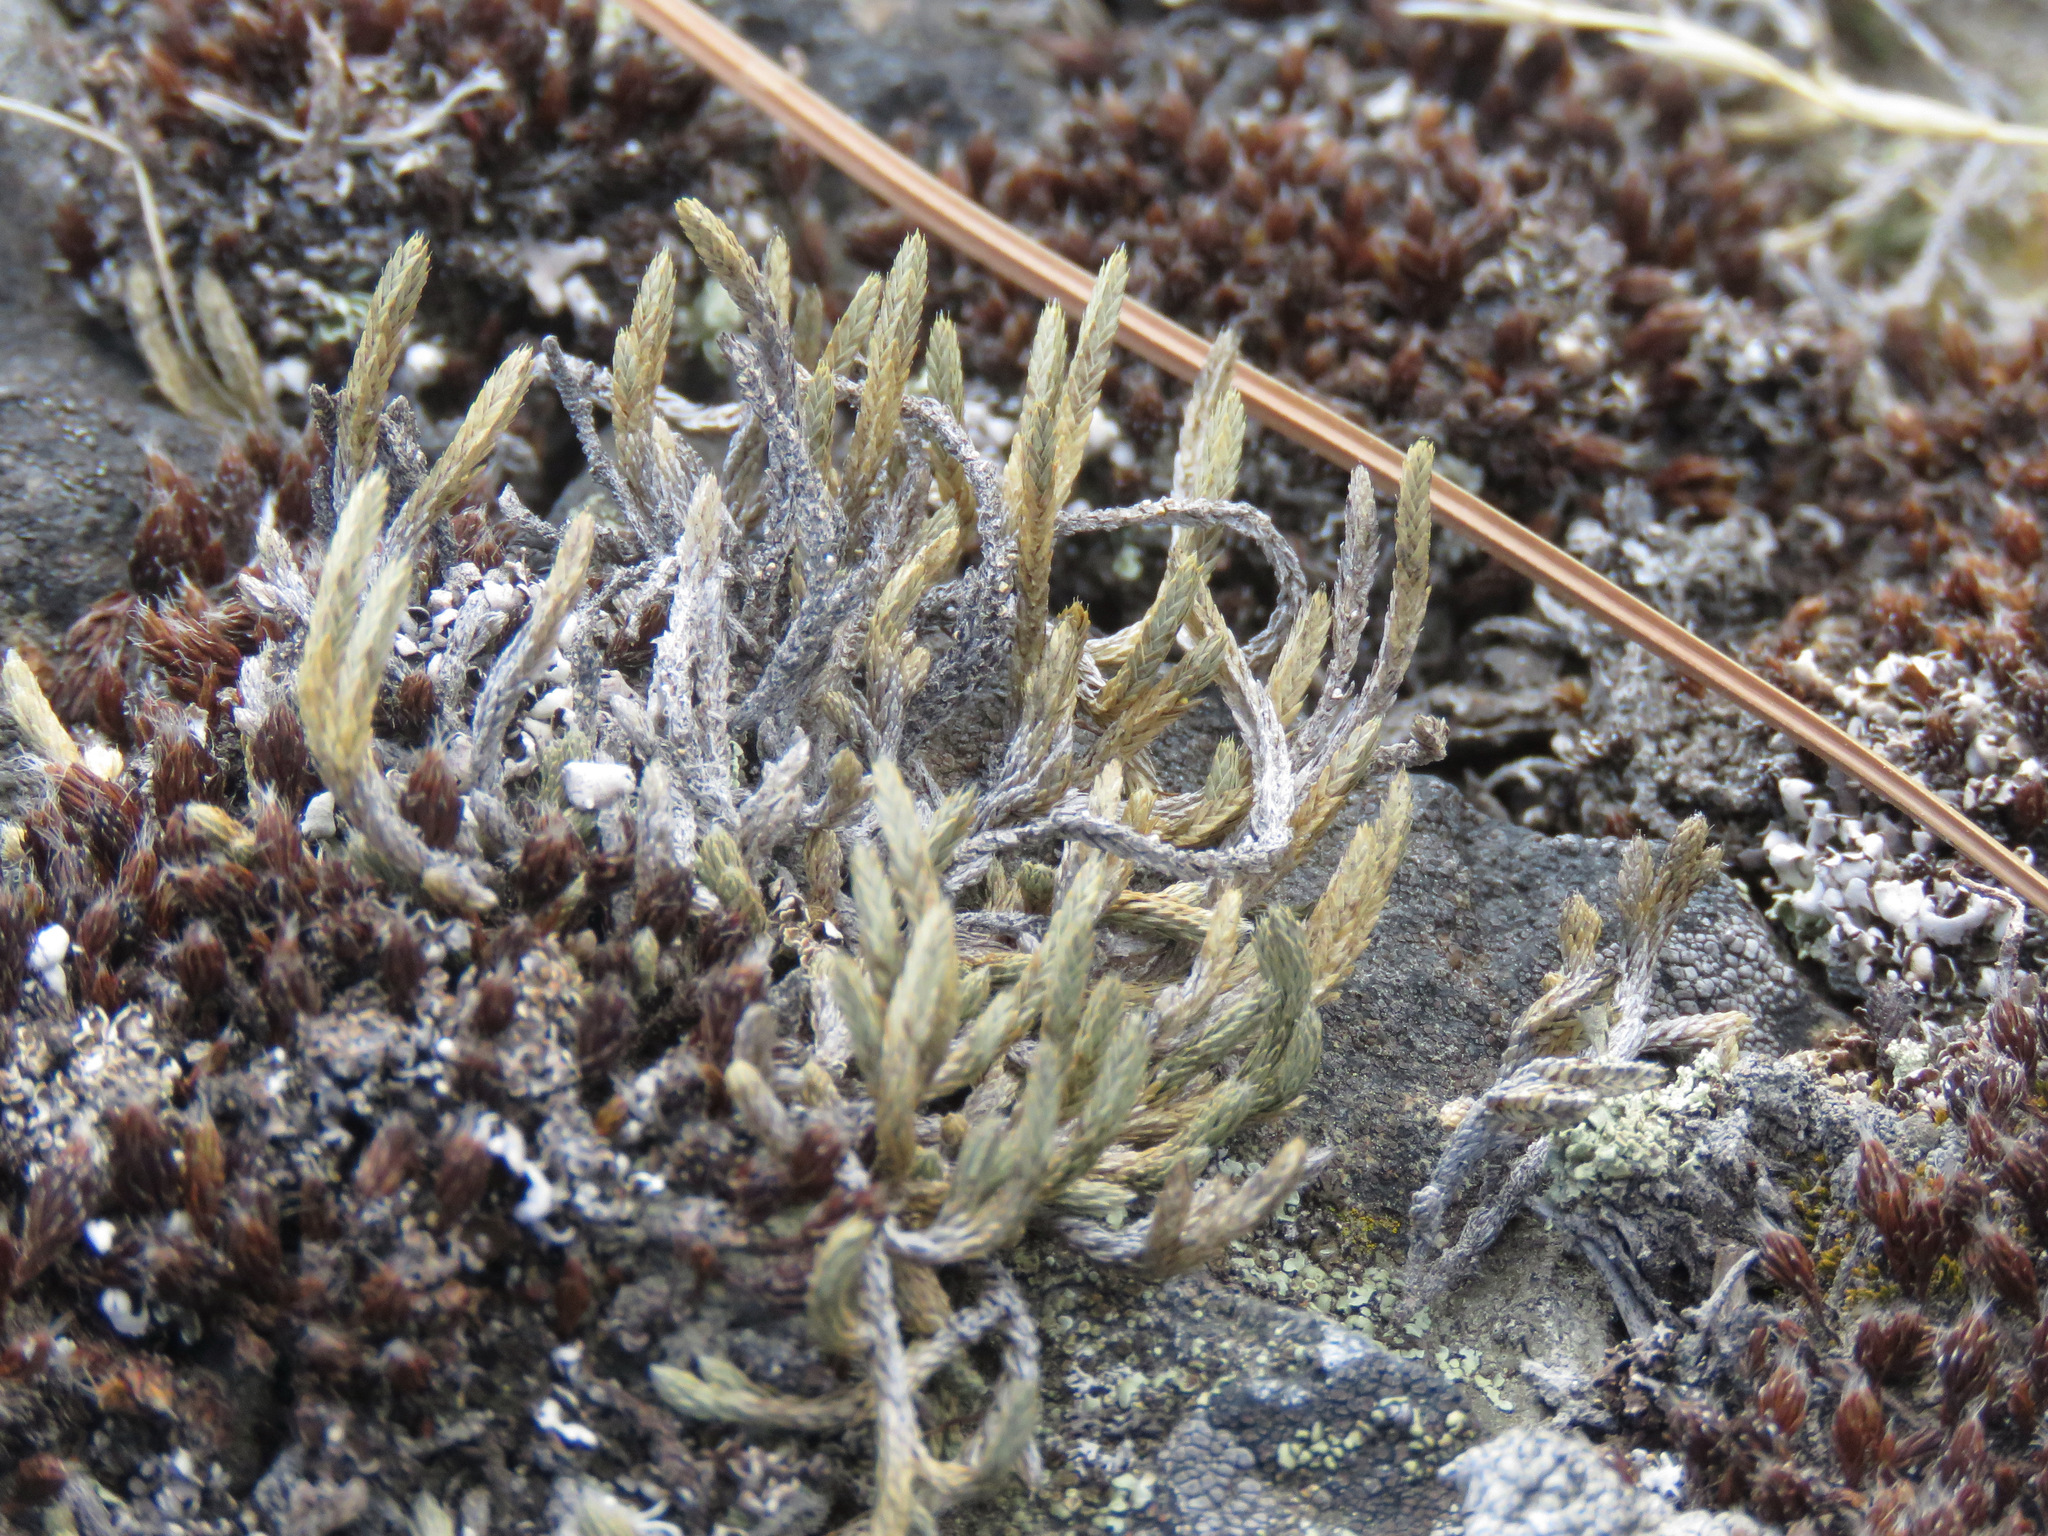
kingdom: Plantae
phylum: Tracheophyta
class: Lycopodiopsida
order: Selaginellales
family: Selaginellaceae
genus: Selaginella
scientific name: Selaginella wallacei
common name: Wallace's selaginella
